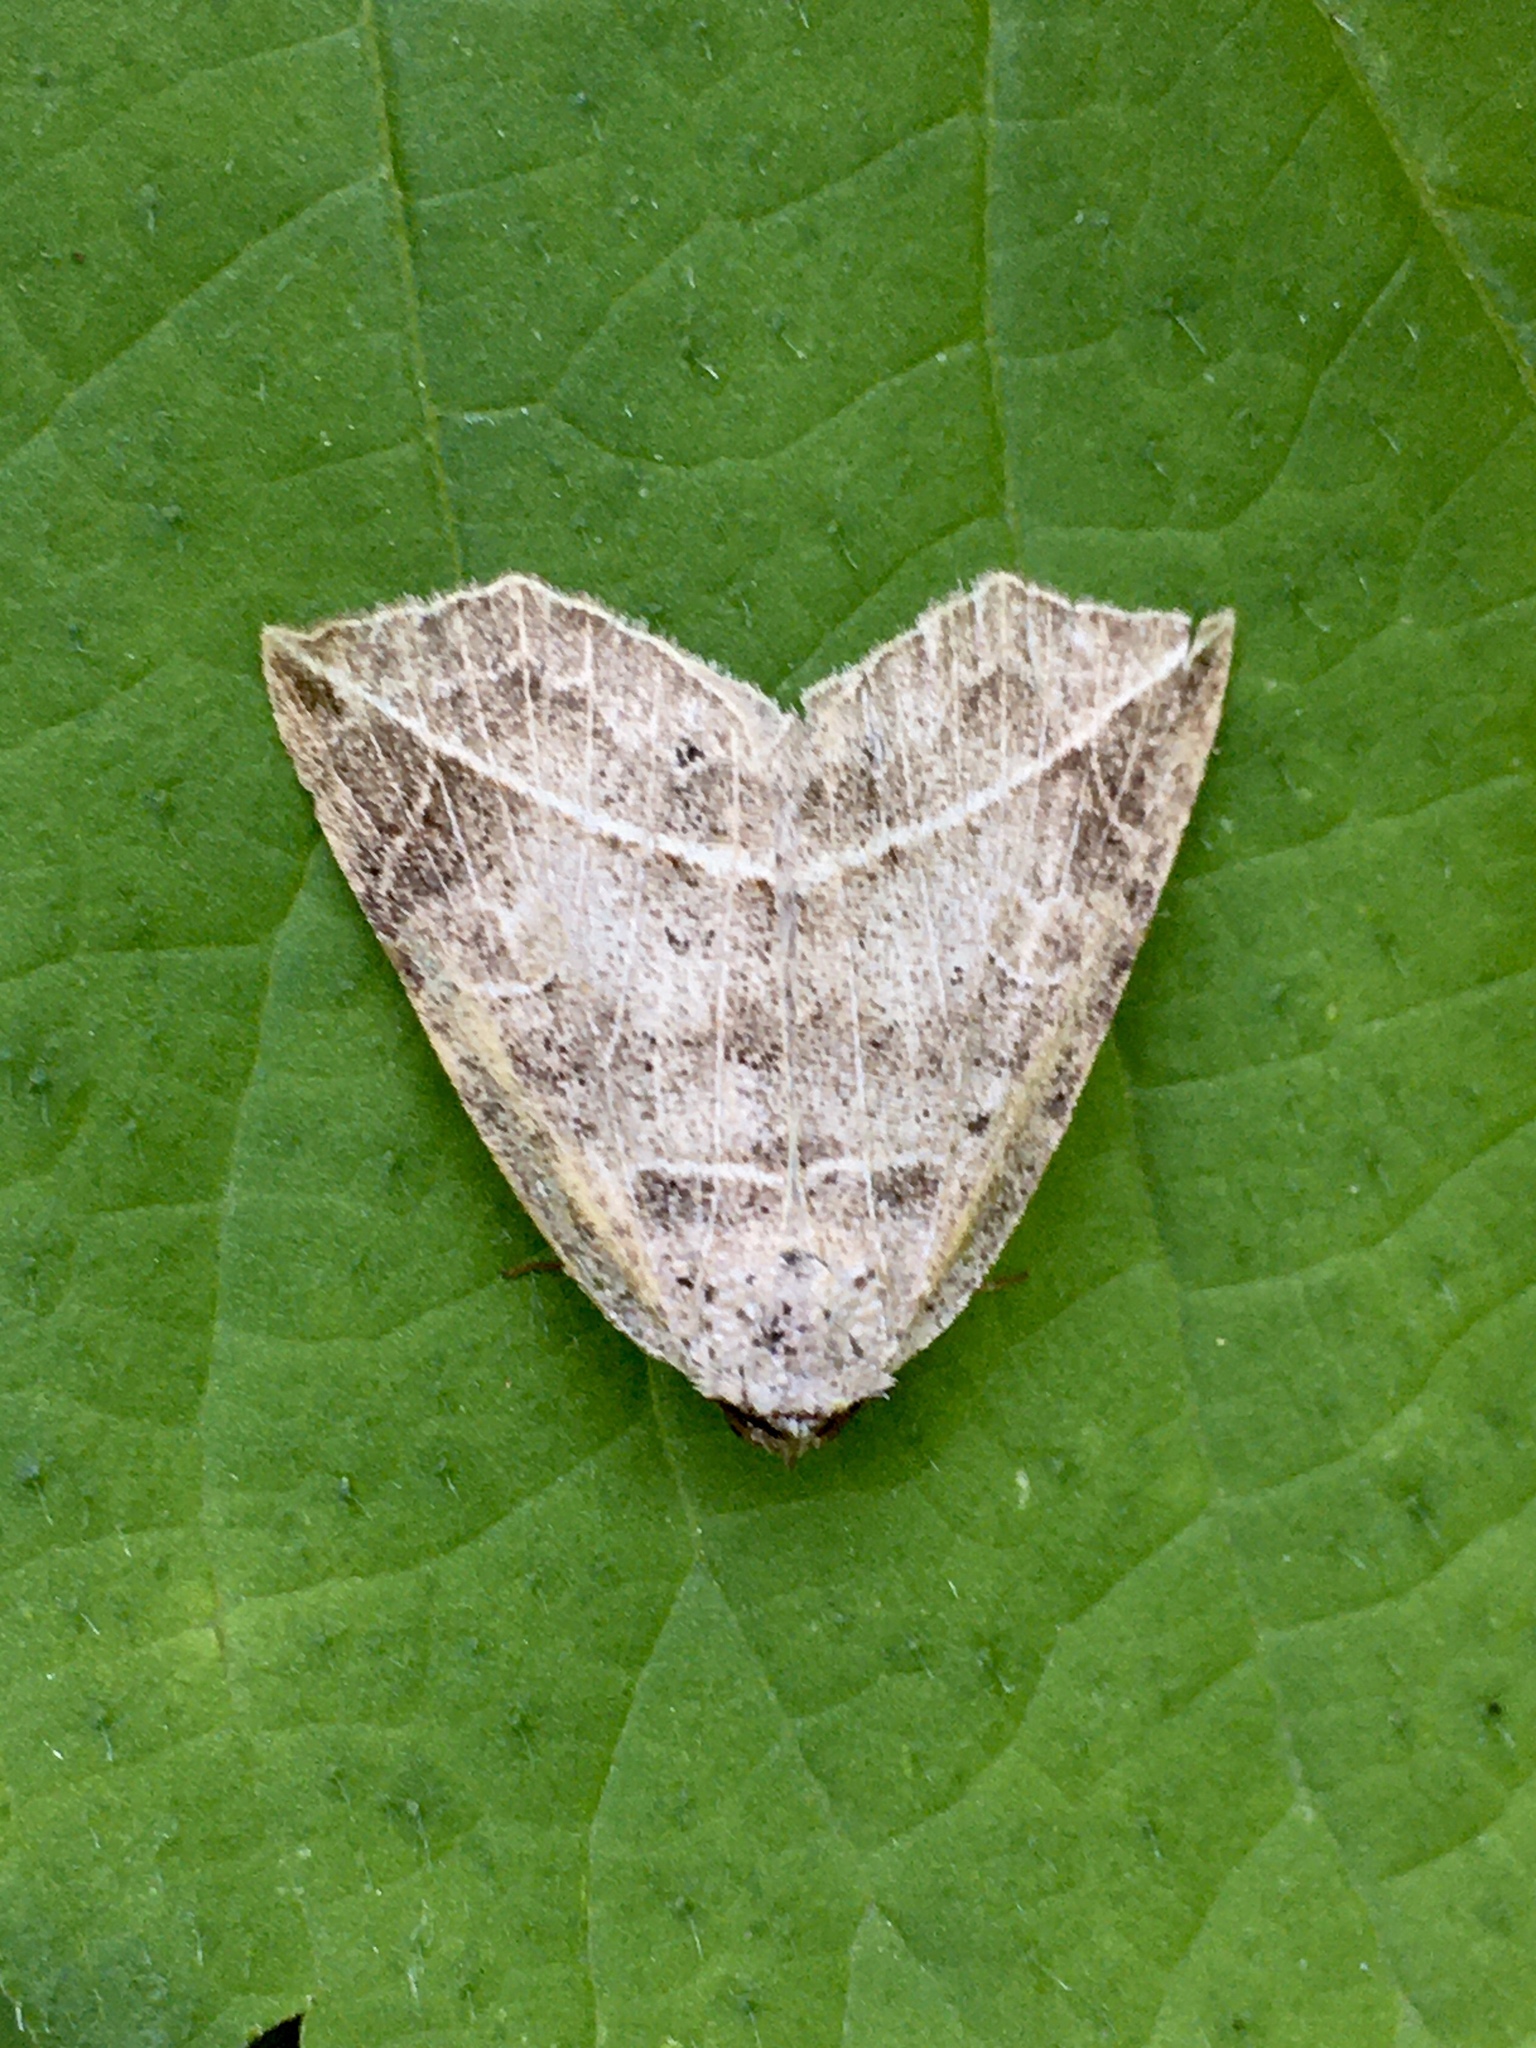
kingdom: Animalia
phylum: Arthropoda
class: Insecta
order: Lepidoptera
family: Erebidae
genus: Isogona
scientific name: Isogona tenuis
